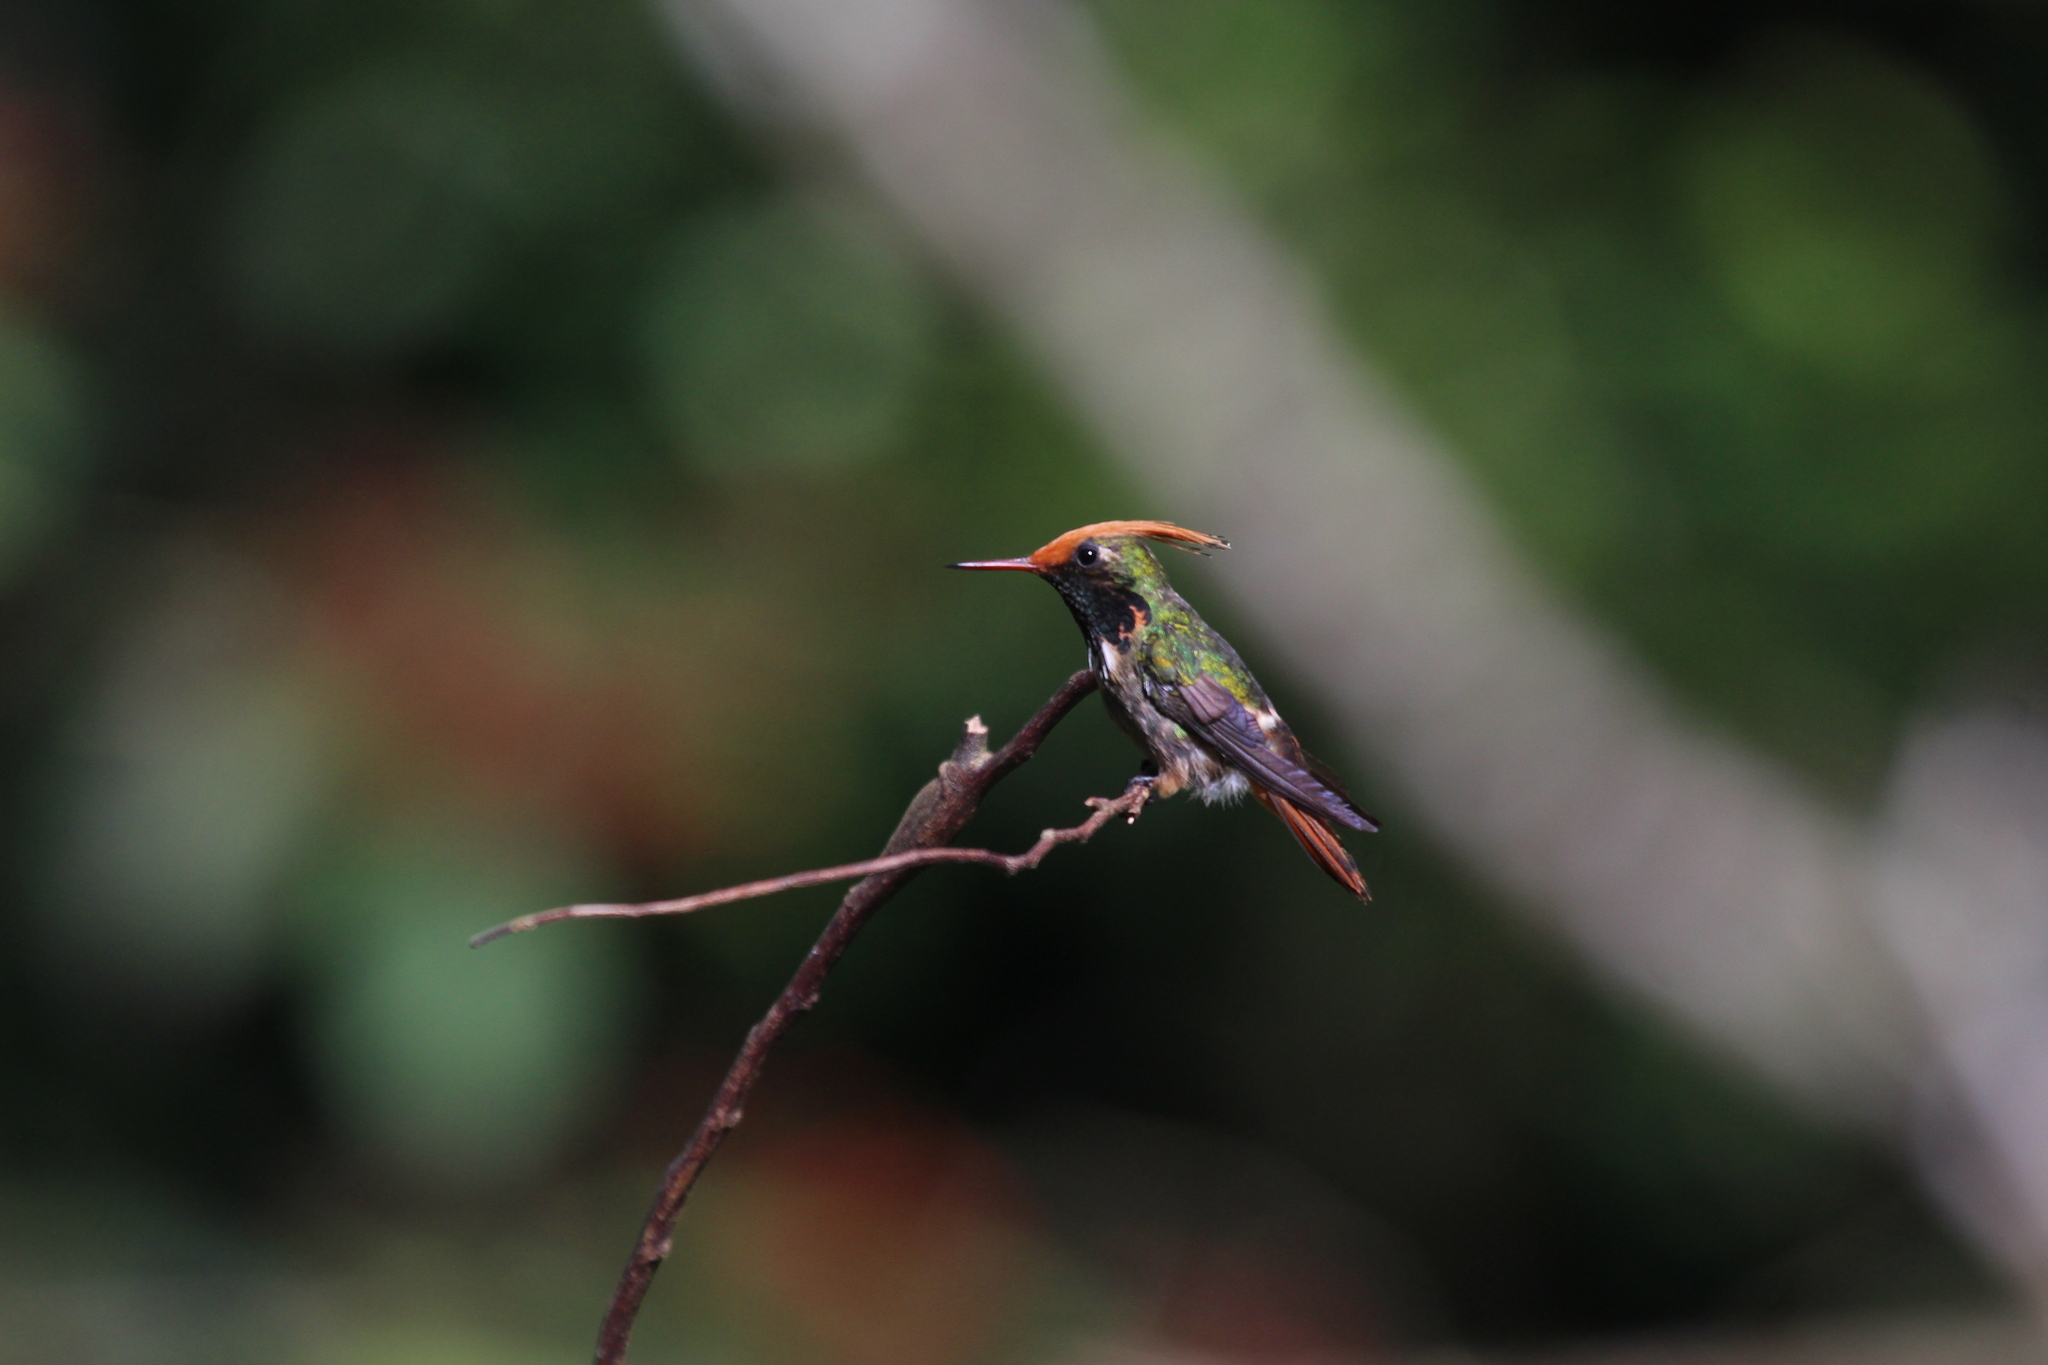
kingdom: Animalia
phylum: Chordata
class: Aves
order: Apodiformes
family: Trochilidae
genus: Lophornis
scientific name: Lophornis delattrei
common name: Rufous-crested coquette
